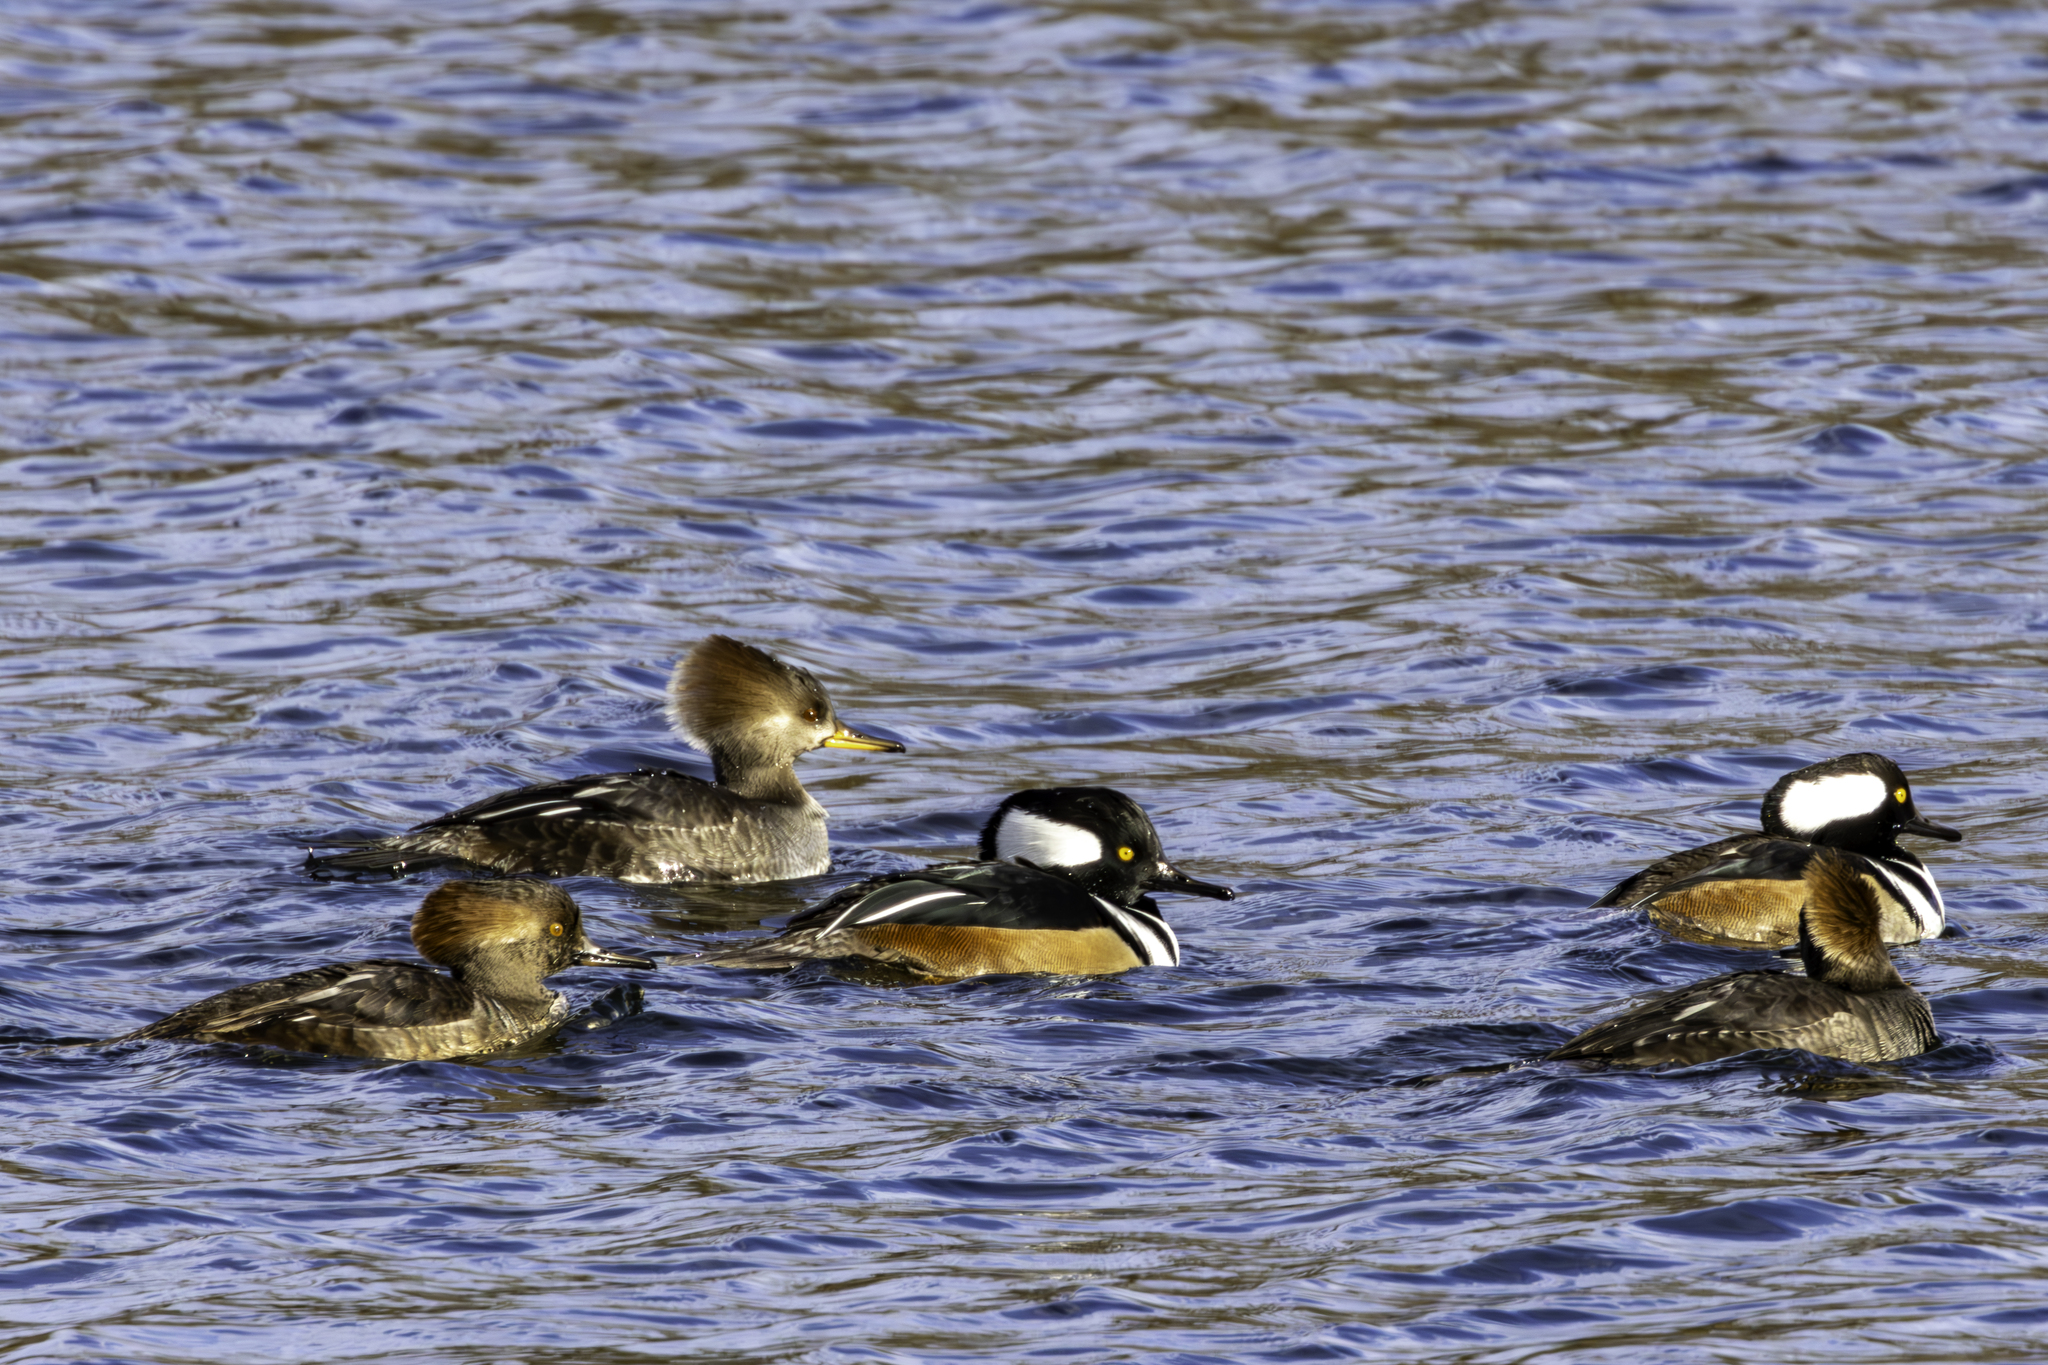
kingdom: Animalia
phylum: Chordata
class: Aves
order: Anseriformes
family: Anatidae
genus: Lophodytes
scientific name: Lophodytes cucullatus
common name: Hooded merganser
